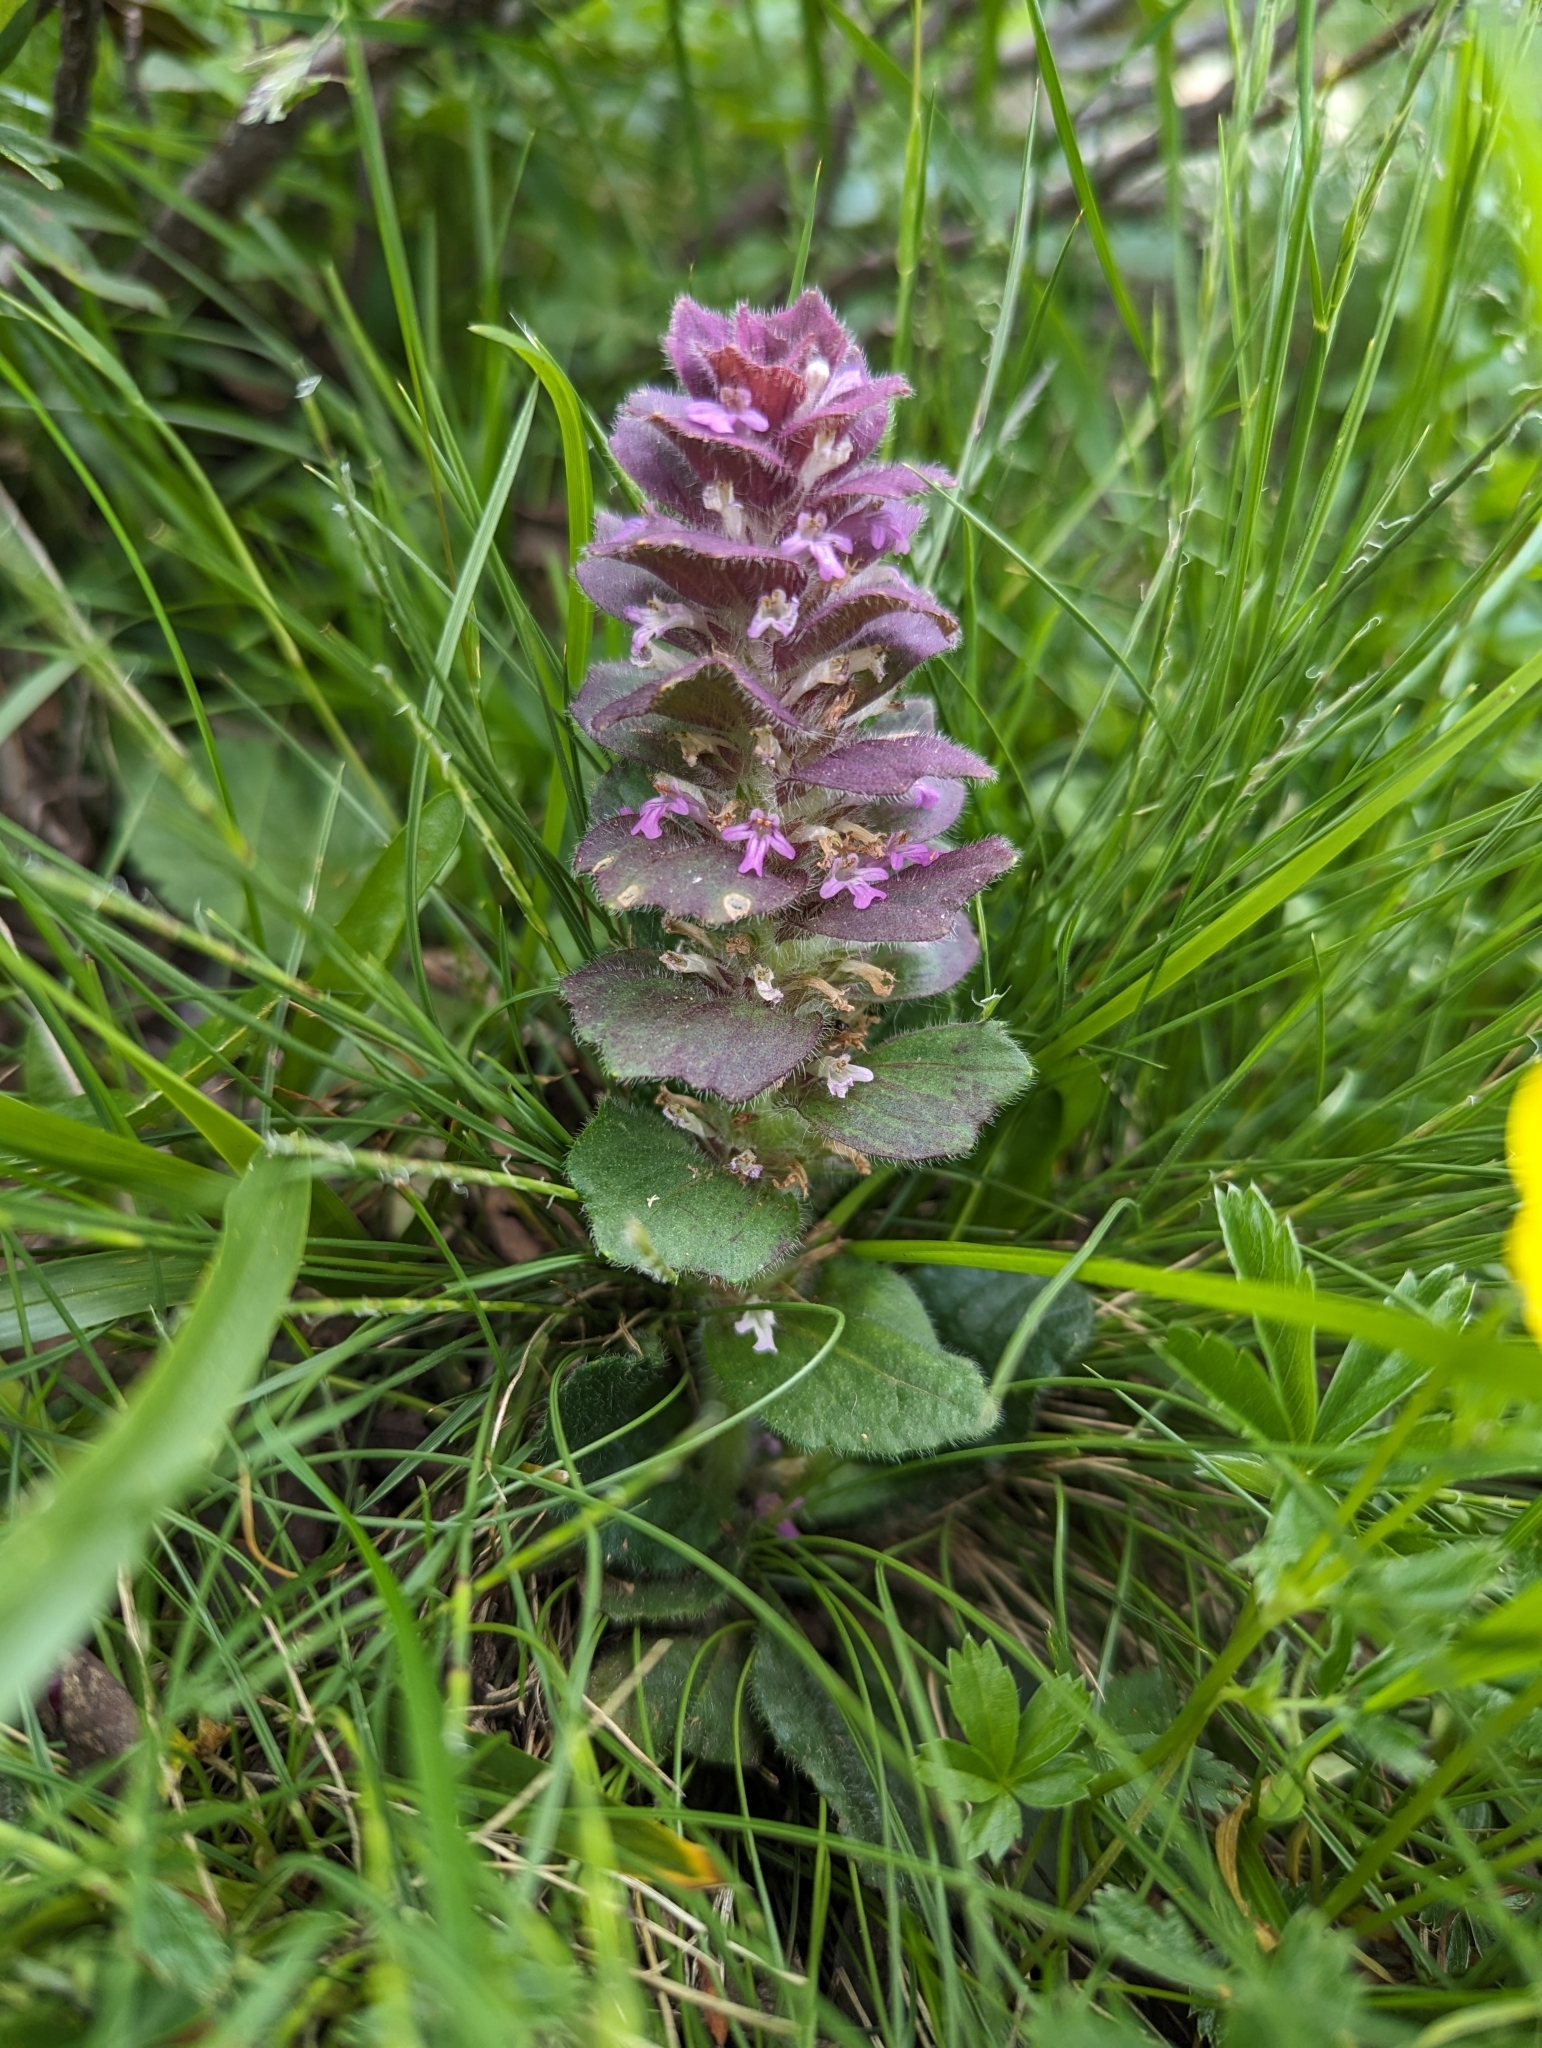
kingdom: Plantae
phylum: Tracheophyta
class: Magnoliopsida
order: Lamiales
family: Lamiaceae
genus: Ajuga
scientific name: Ajuga pyramidalis
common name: Pyramid bugle
